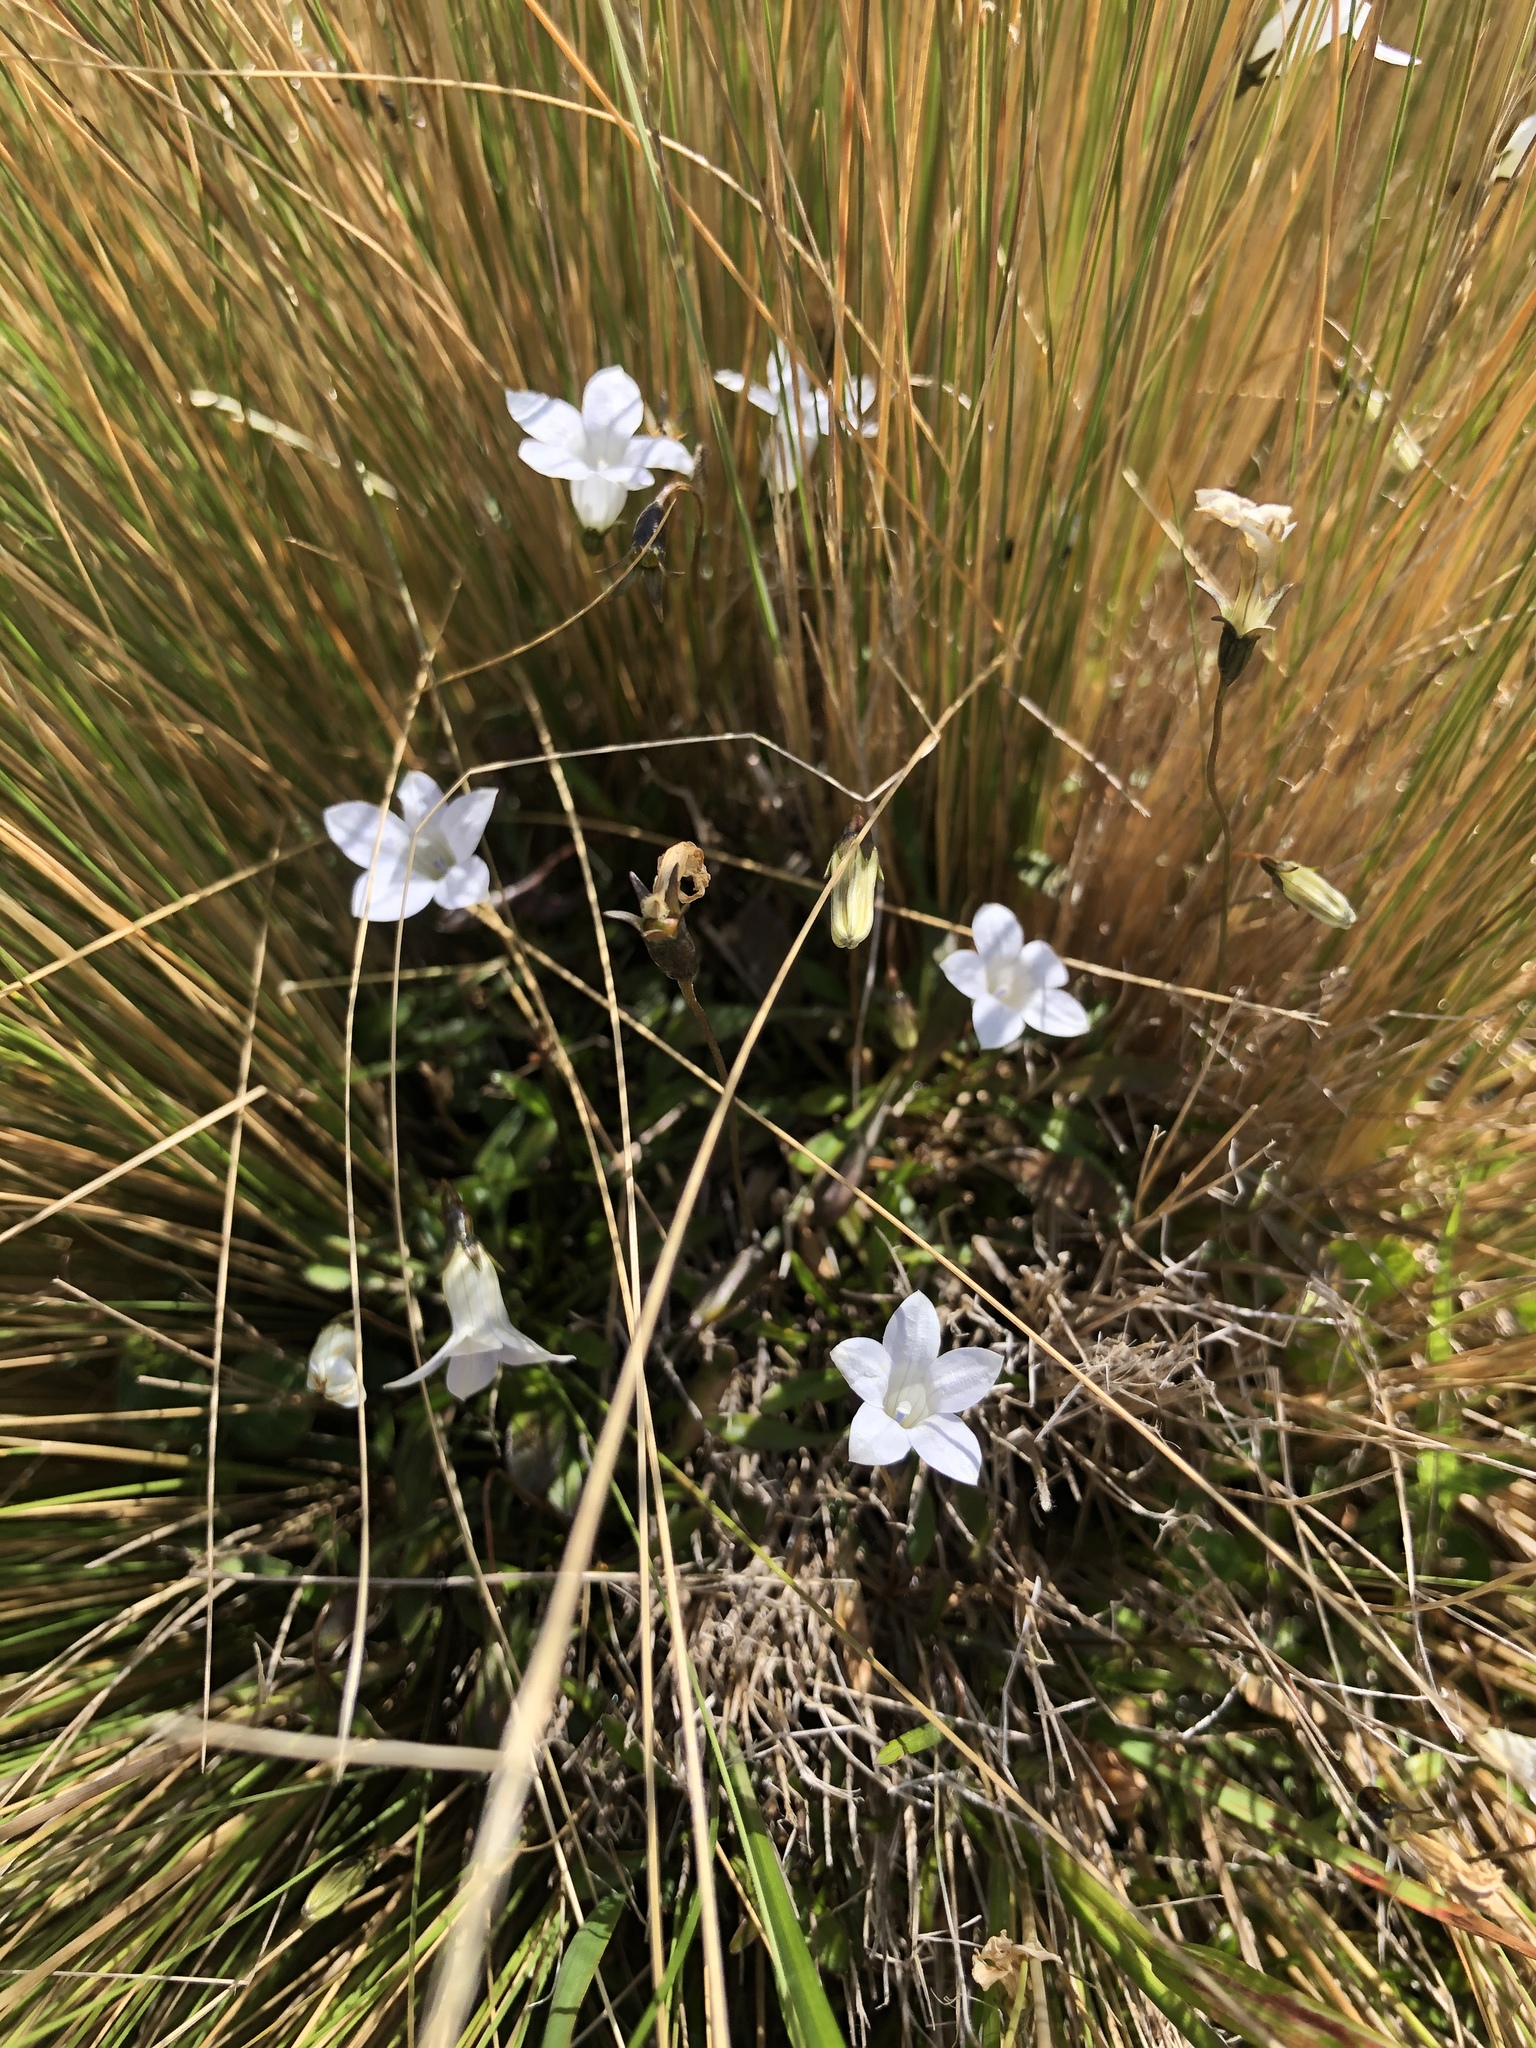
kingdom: Plantae
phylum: Tracheophyta
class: Magnoliopsida
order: Asterales
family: Campanulaceae
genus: Wahlenbergia
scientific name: Wahlenbergia albomarginata
